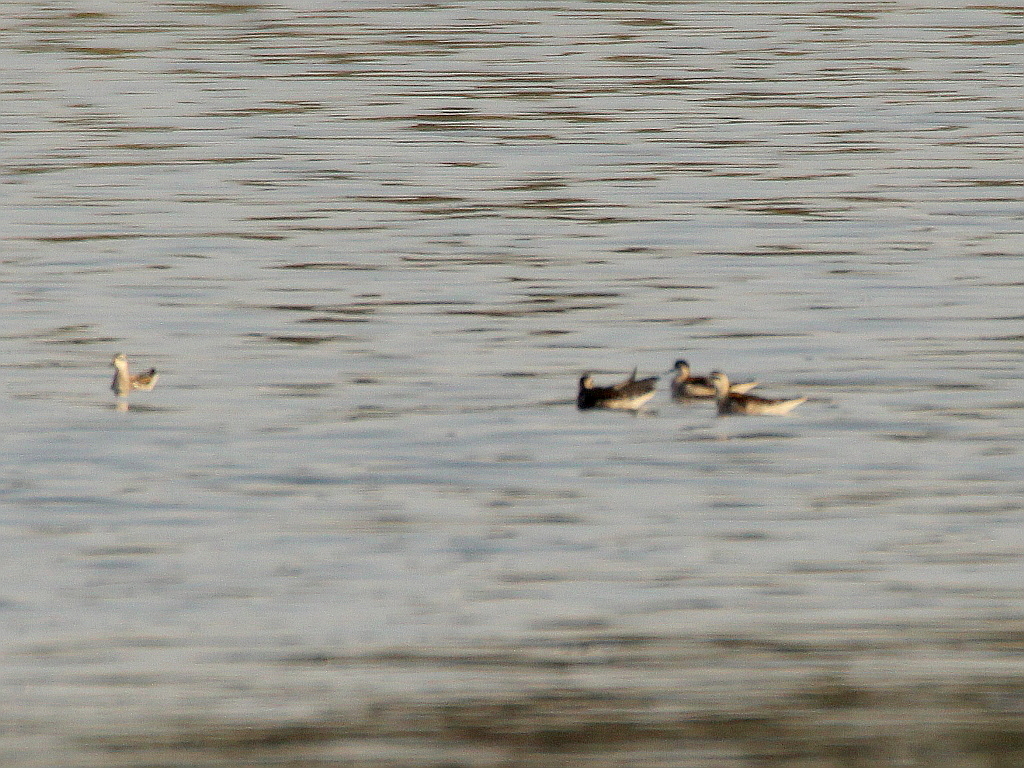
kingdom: Animalia
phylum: Chordata
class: Aves
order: Charadriiformes
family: Scolopacidae
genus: Phalaropus
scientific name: Phalaropus lobatus
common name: Red-necked phalarope
